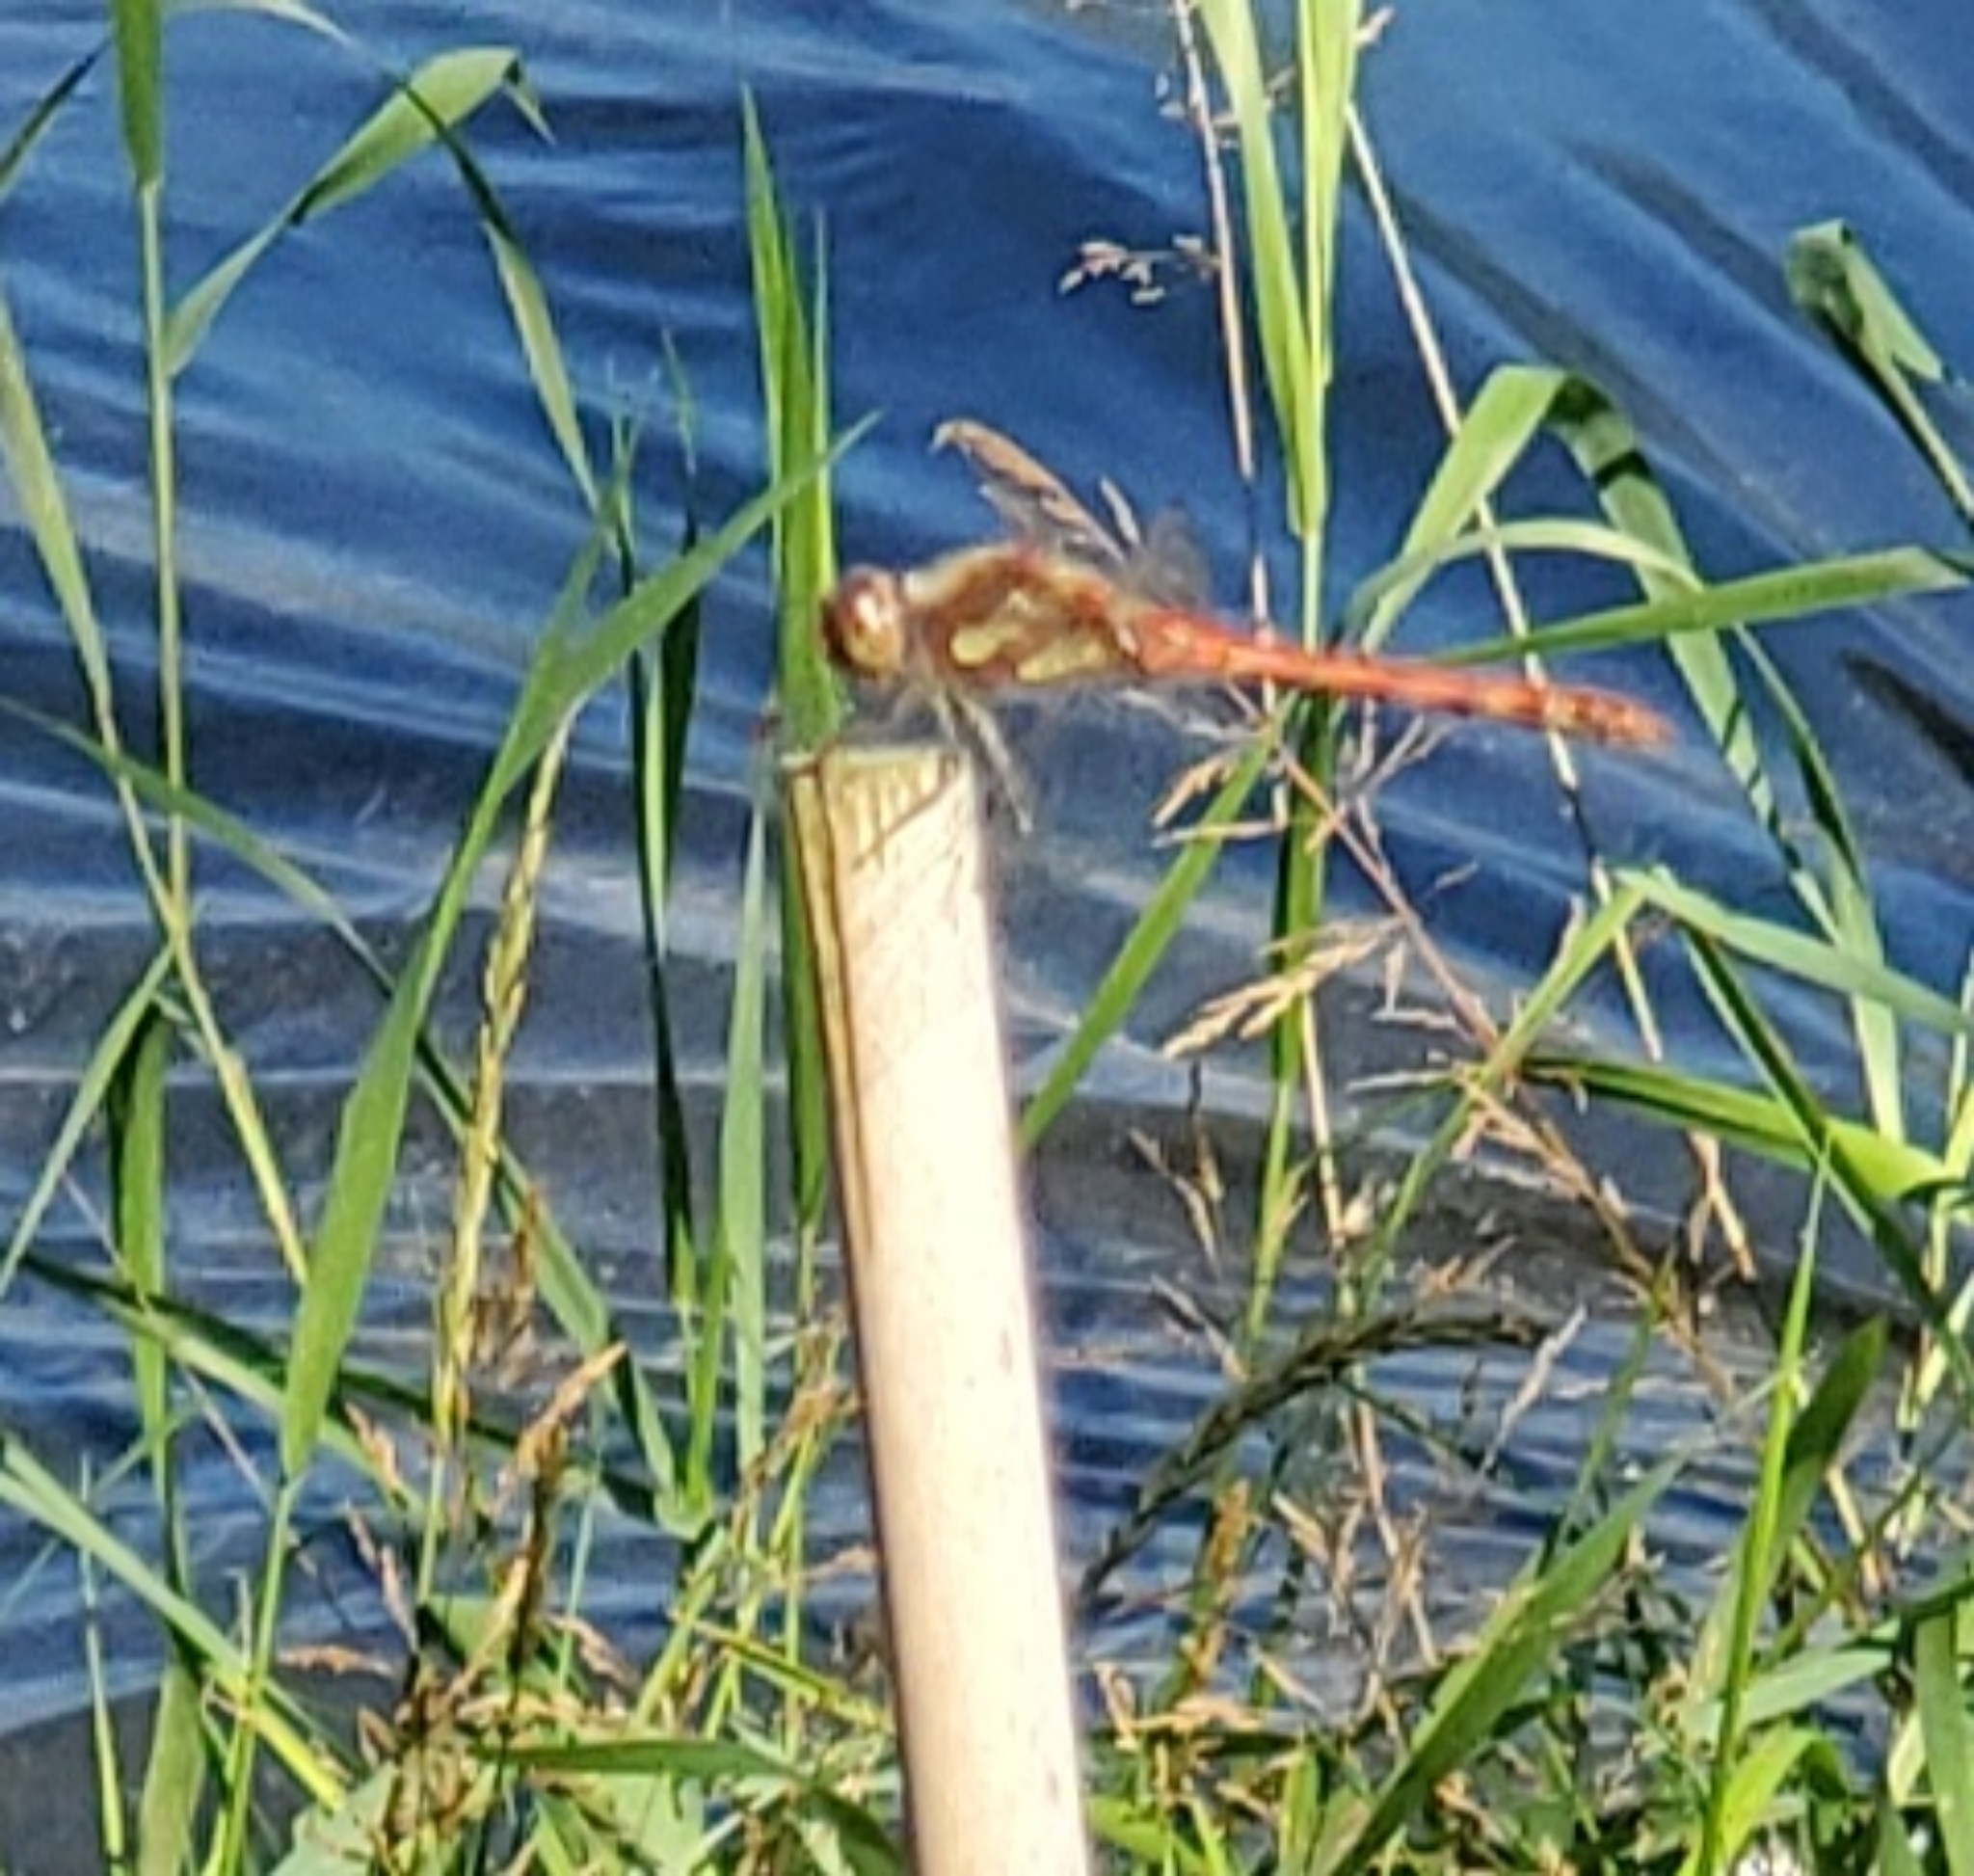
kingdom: Animalia
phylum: Arthropoda
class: Insecta
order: Odonata
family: Libellulidae
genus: Sympetrum
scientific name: Sympetrum striolatum
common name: Common darter
